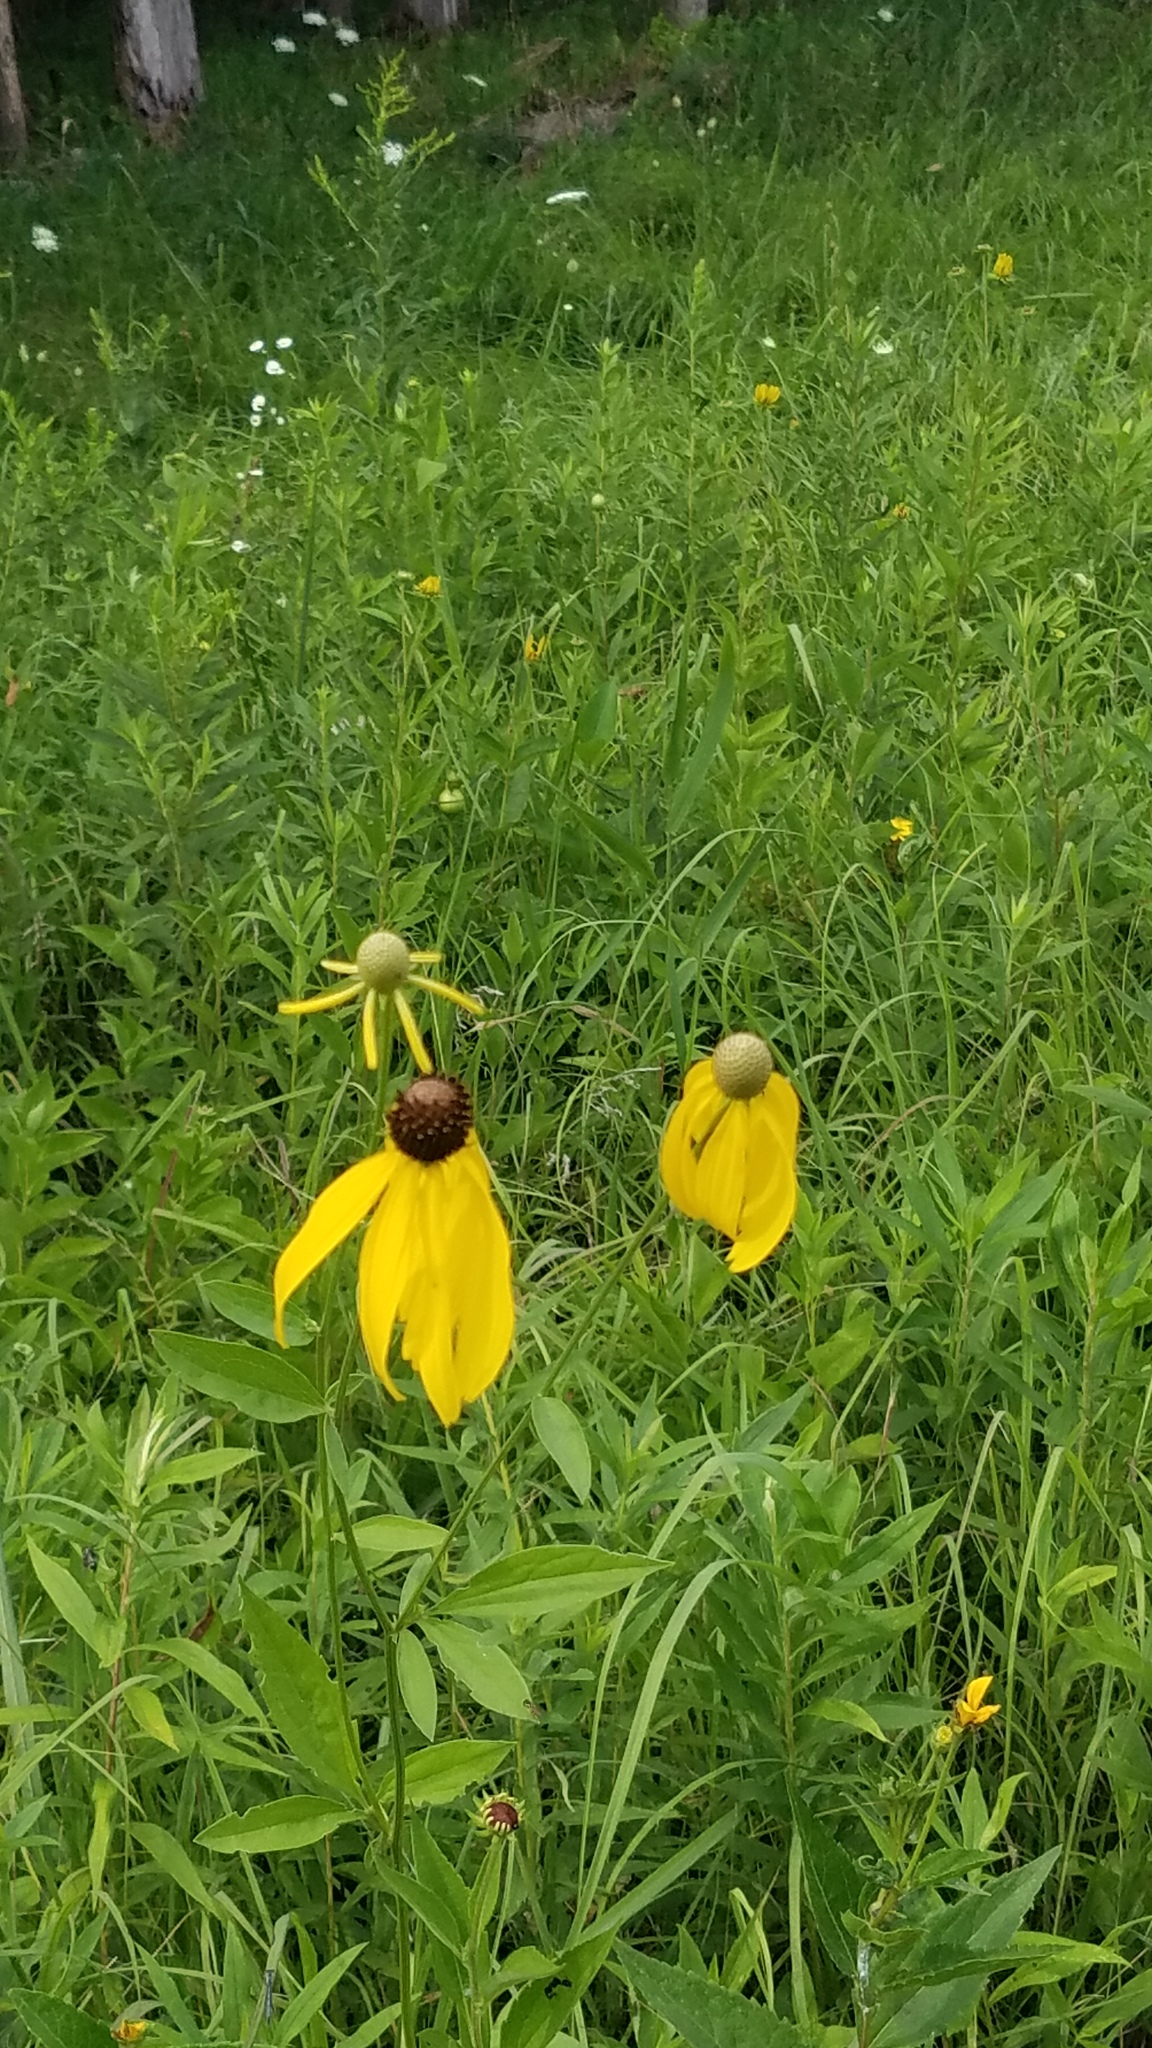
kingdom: Plantae
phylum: Tracheophyta
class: Magnoliopsida
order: Asterales
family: Asteraceae
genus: Ratibida
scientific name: Ratibida pinnata
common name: Drooping prairie-coneflower
